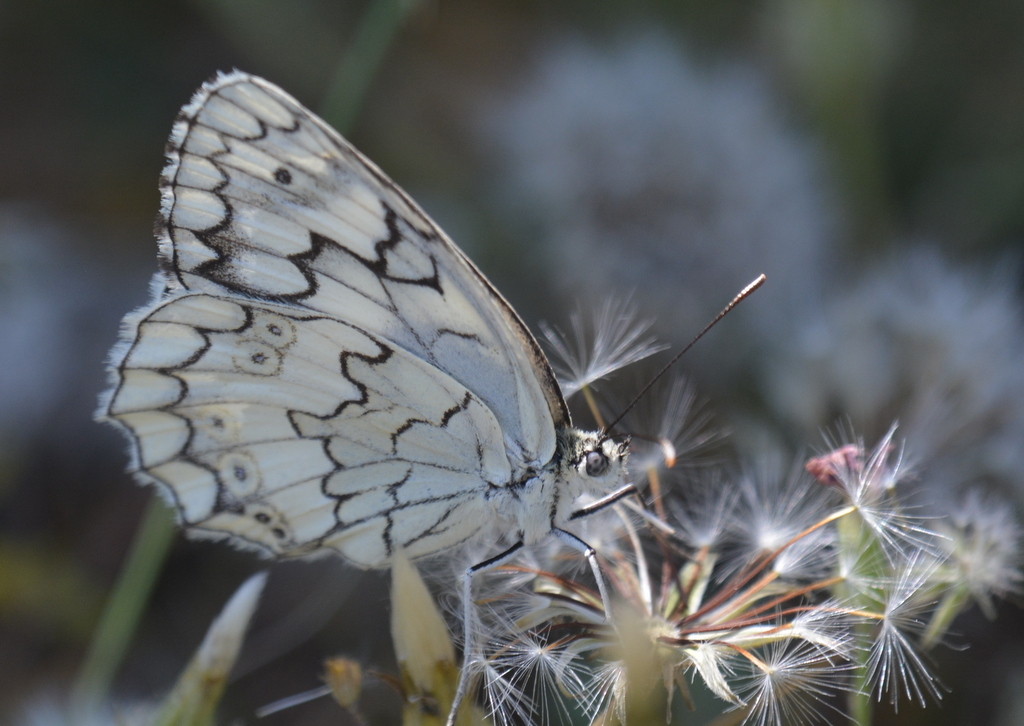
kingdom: Animalia
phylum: Arthropoda
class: Insecta
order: Lepidoptera
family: Nymphalidae
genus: Melanargia
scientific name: Melanargia larissa
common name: Balkan marbled white
